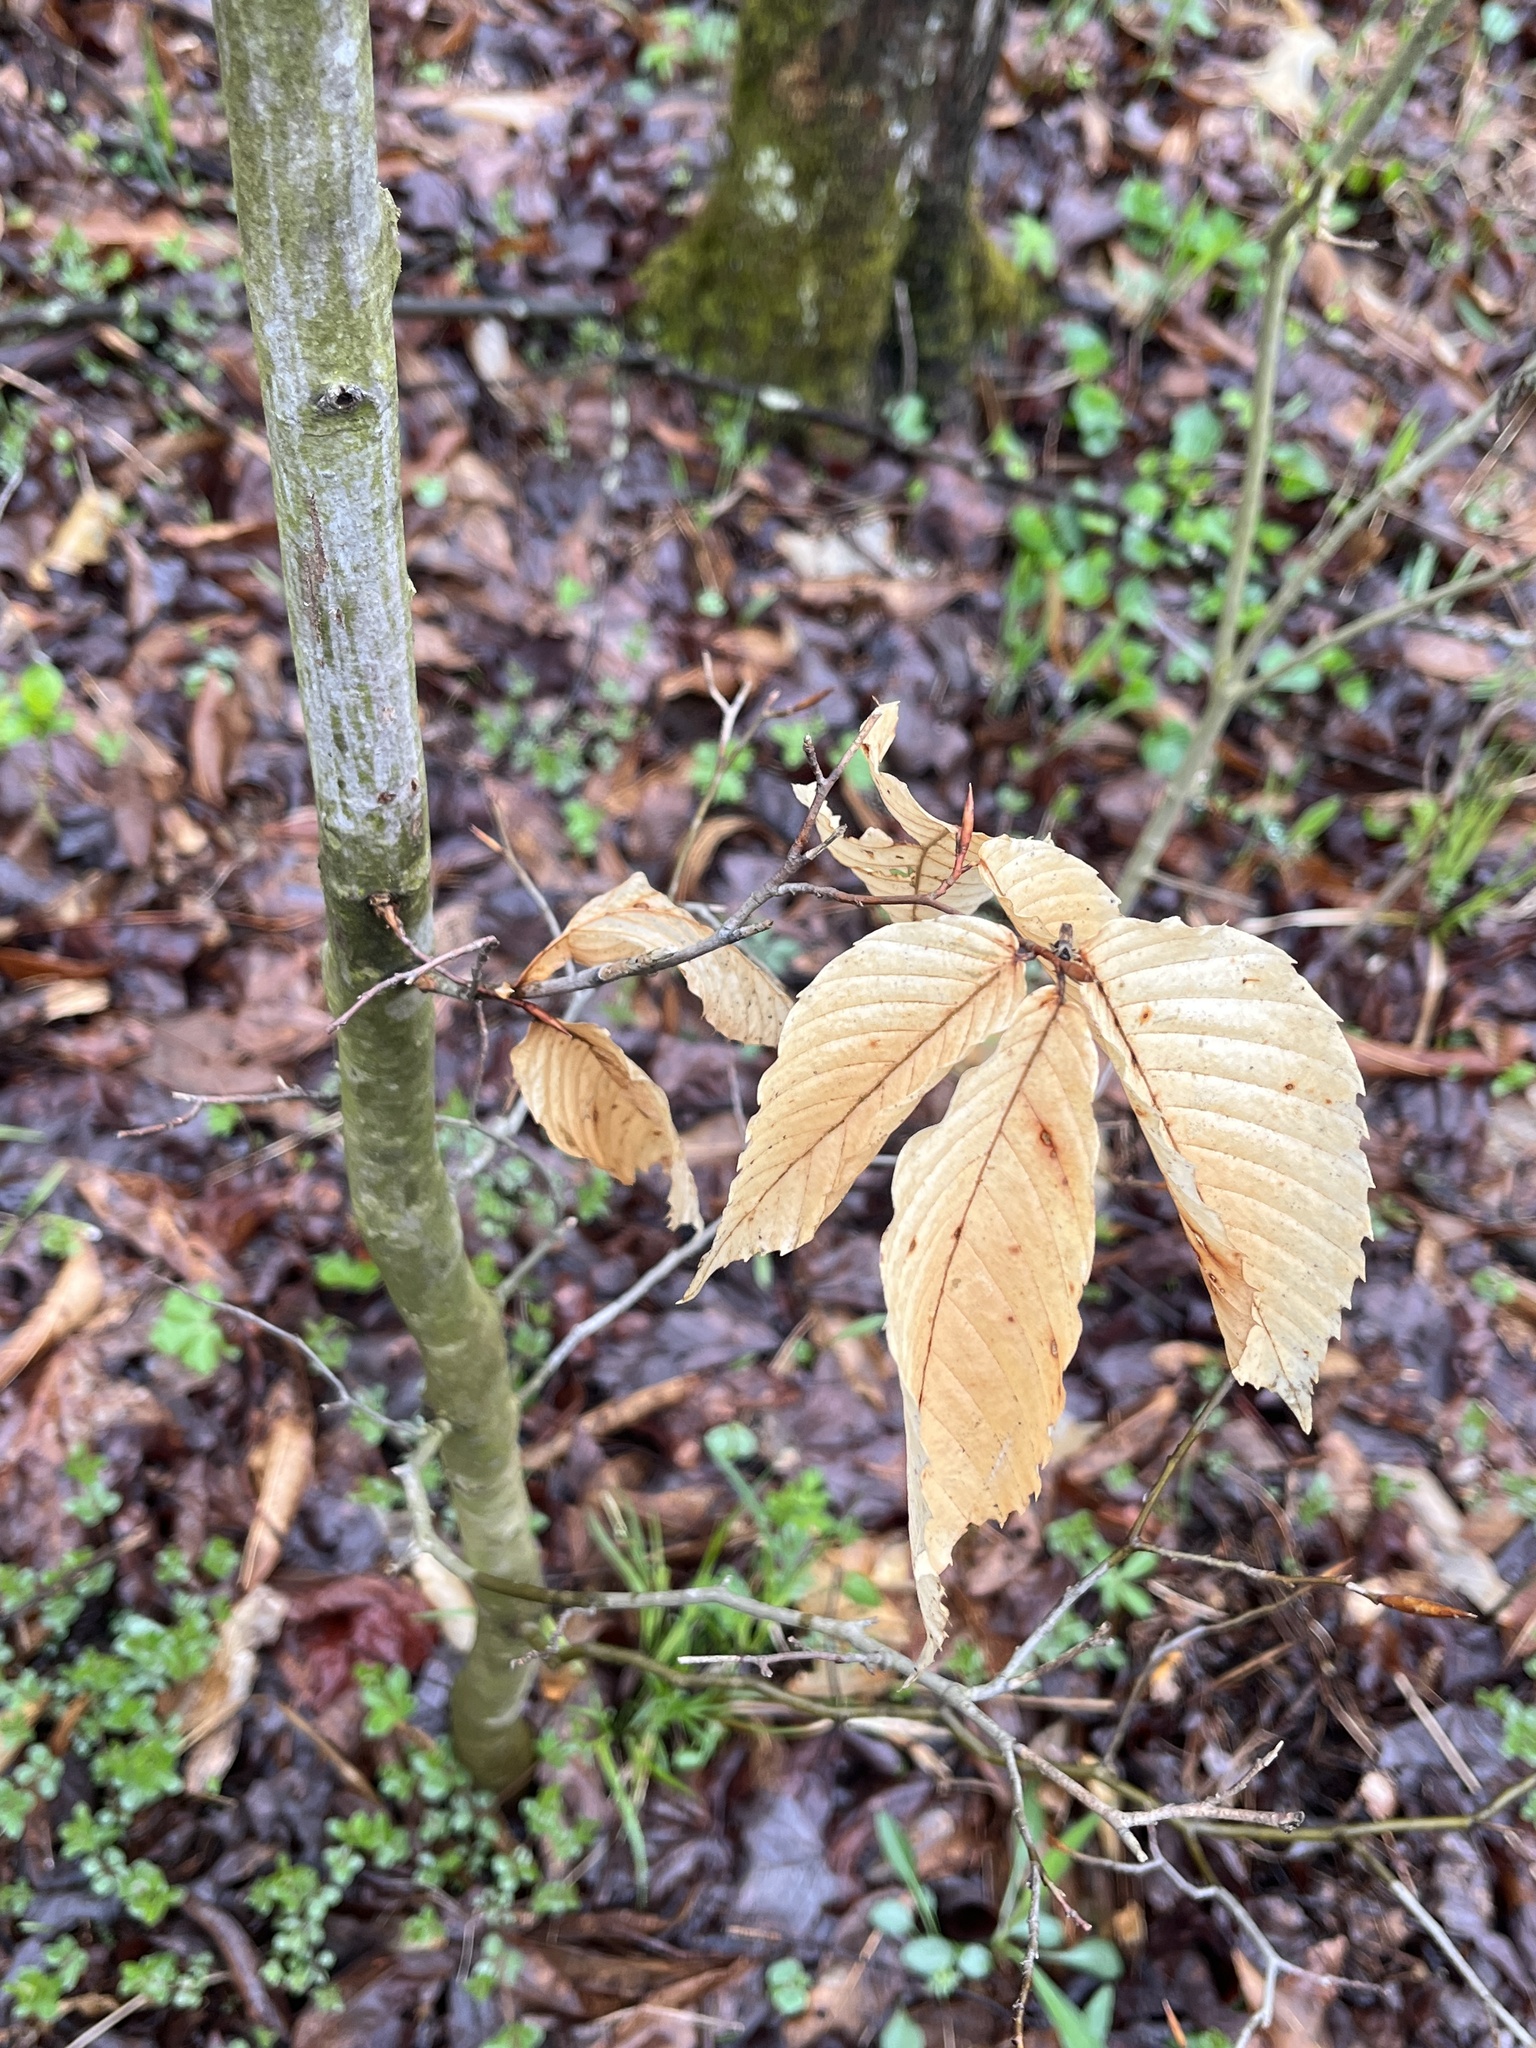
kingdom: Plantae
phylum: Tracheophyta
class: Magnoliopsida
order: Fagales
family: Fagaceae
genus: Fagus
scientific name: Fagus grandifolia
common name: American beech
